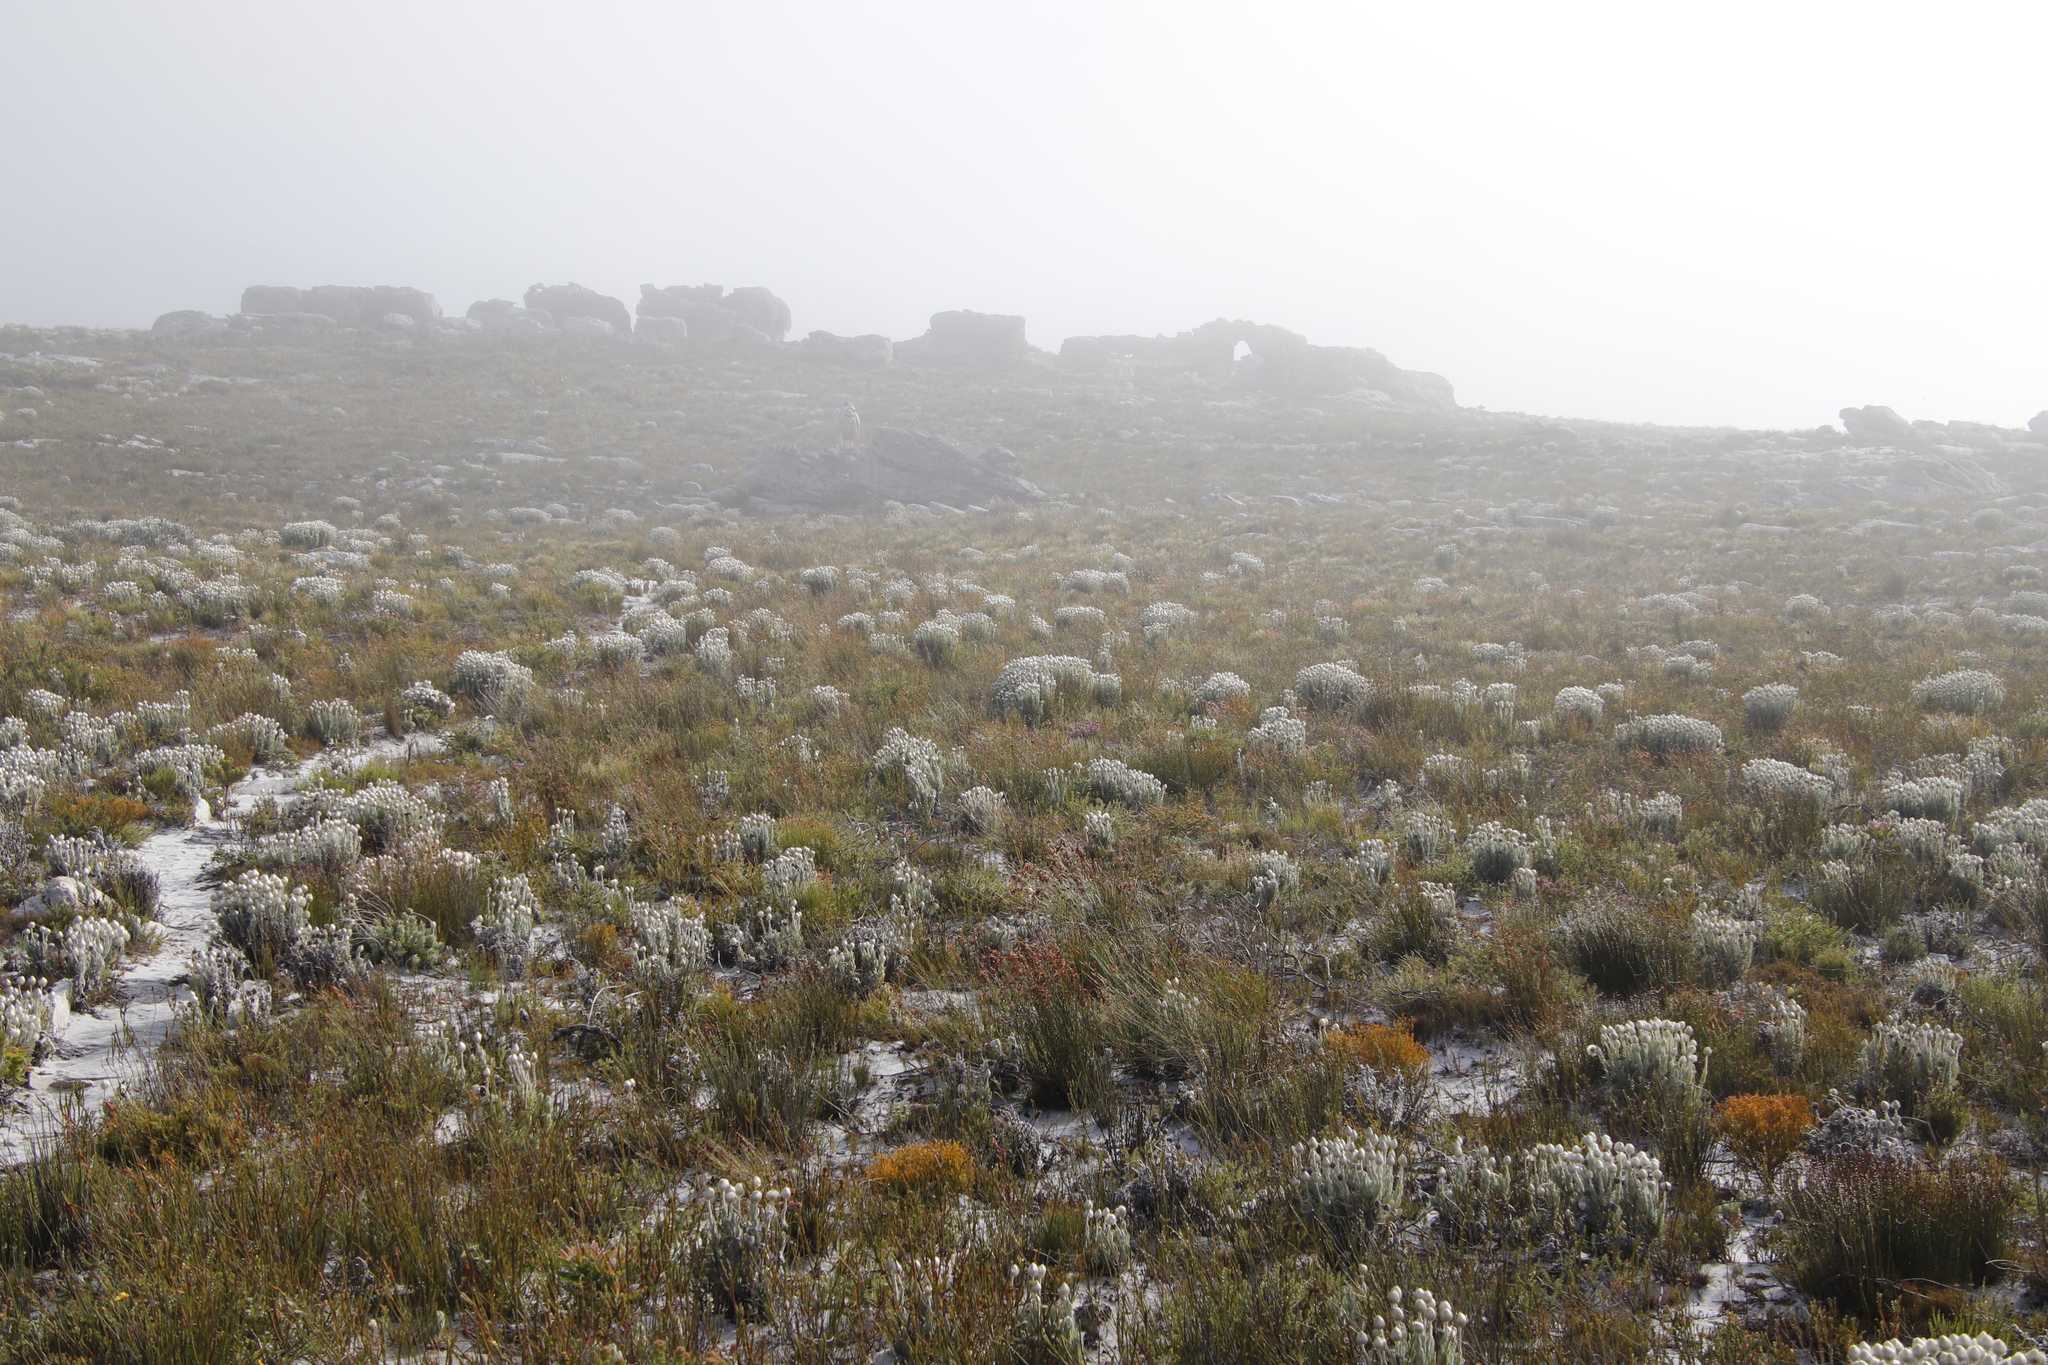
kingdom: Plantae
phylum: Tracheophyta
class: Magnoliopsida
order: Asterales
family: Asteraceae
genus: Syncarpha
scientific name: Syncarpha vestita
